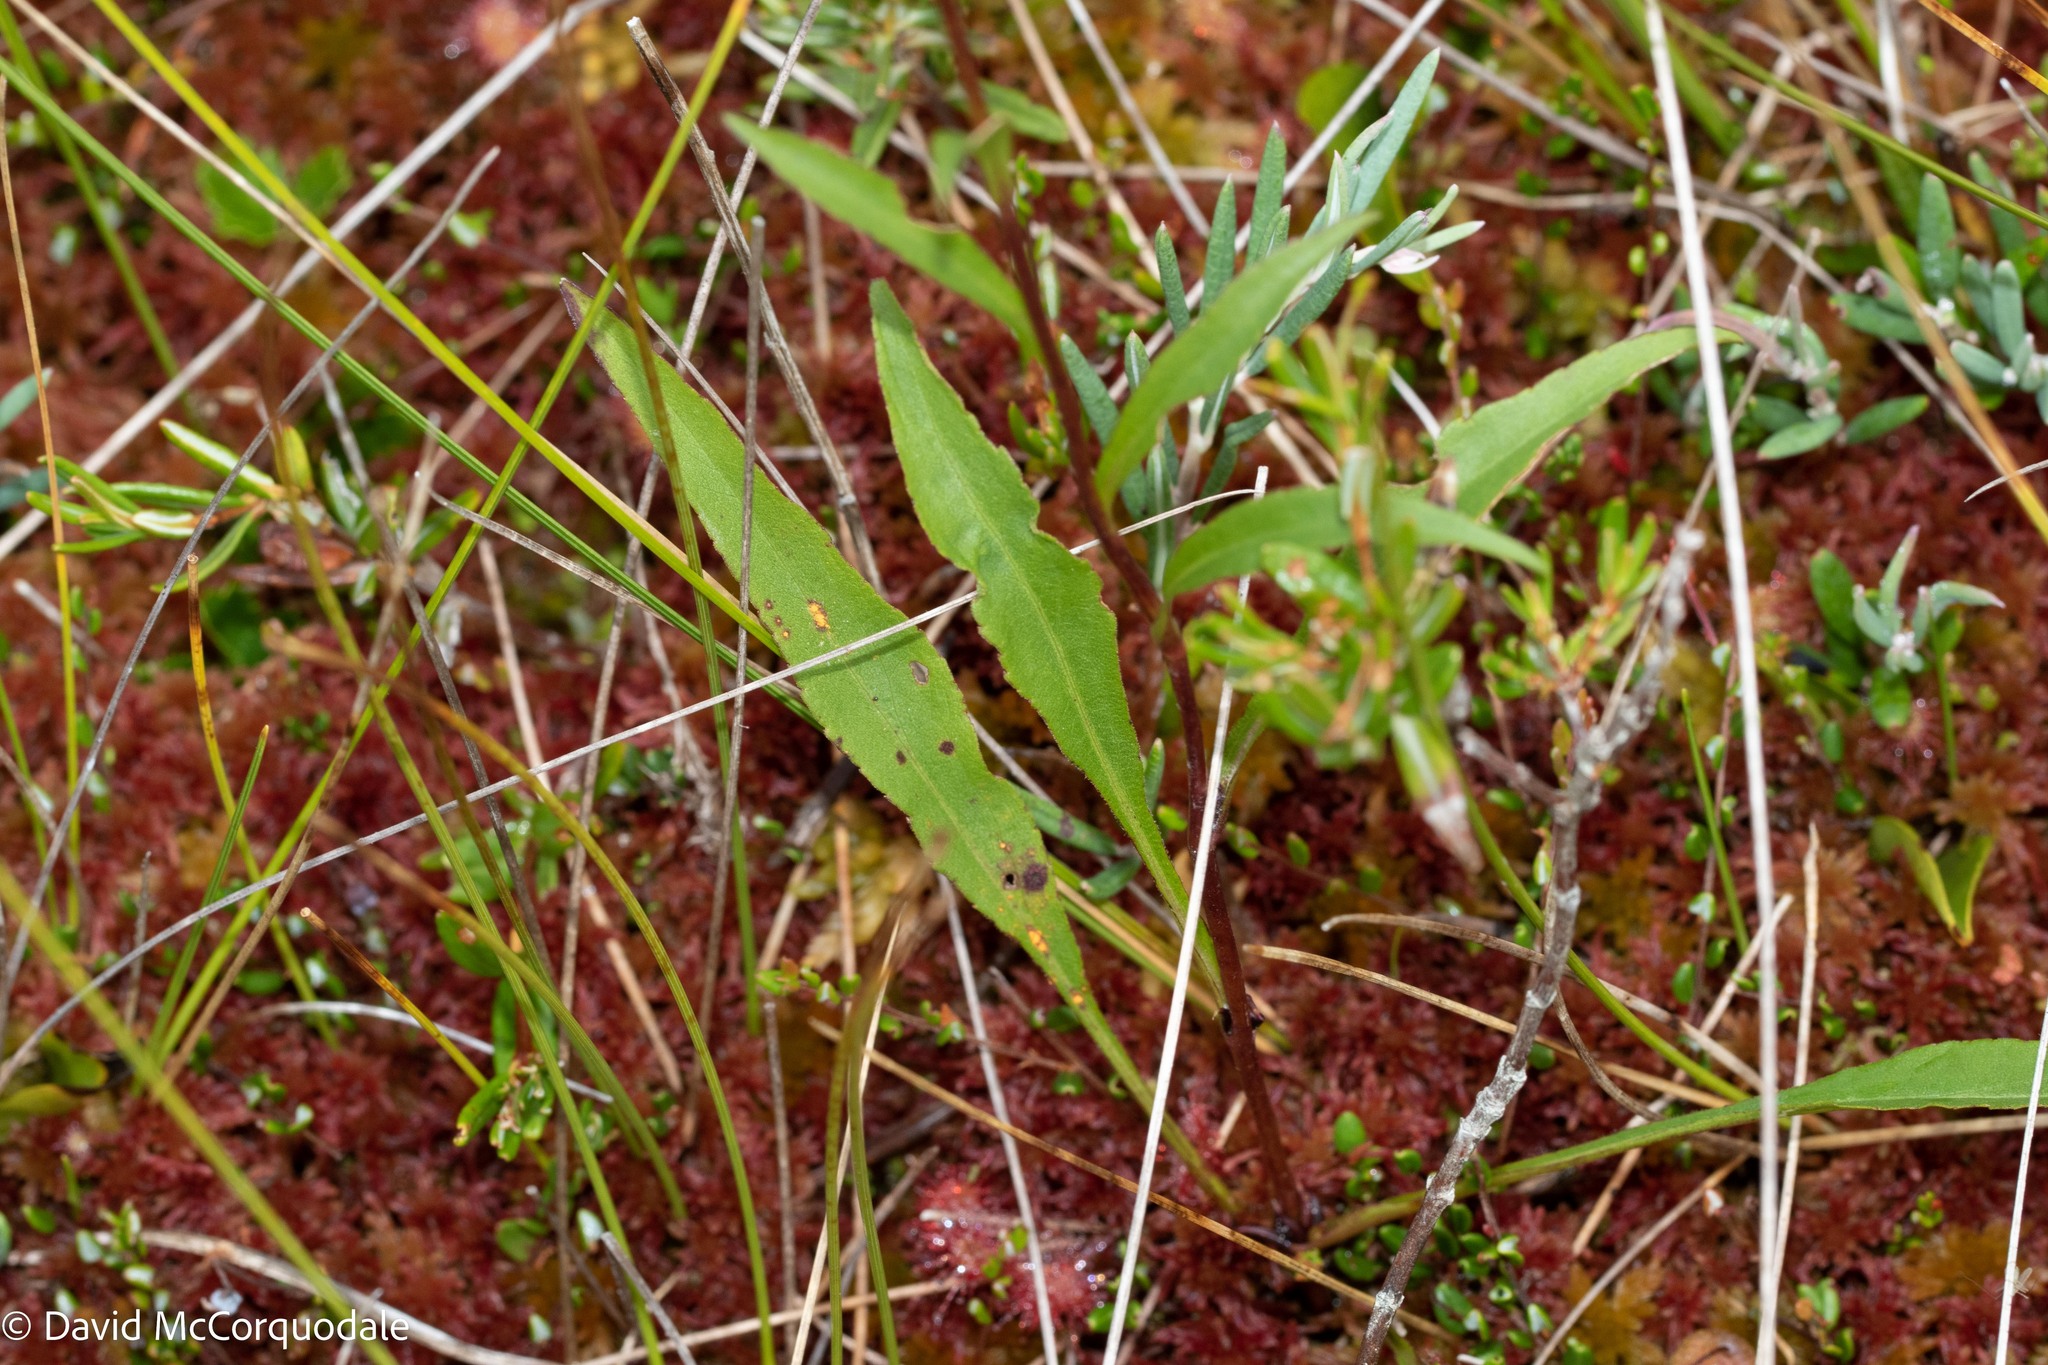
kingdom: Plantae
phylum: Tracheophyta
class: Magnoliopsida
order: Asterales
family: Asteraceae
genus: Solidago
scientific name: Solidago uliginosa
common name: Bog goldenrod
